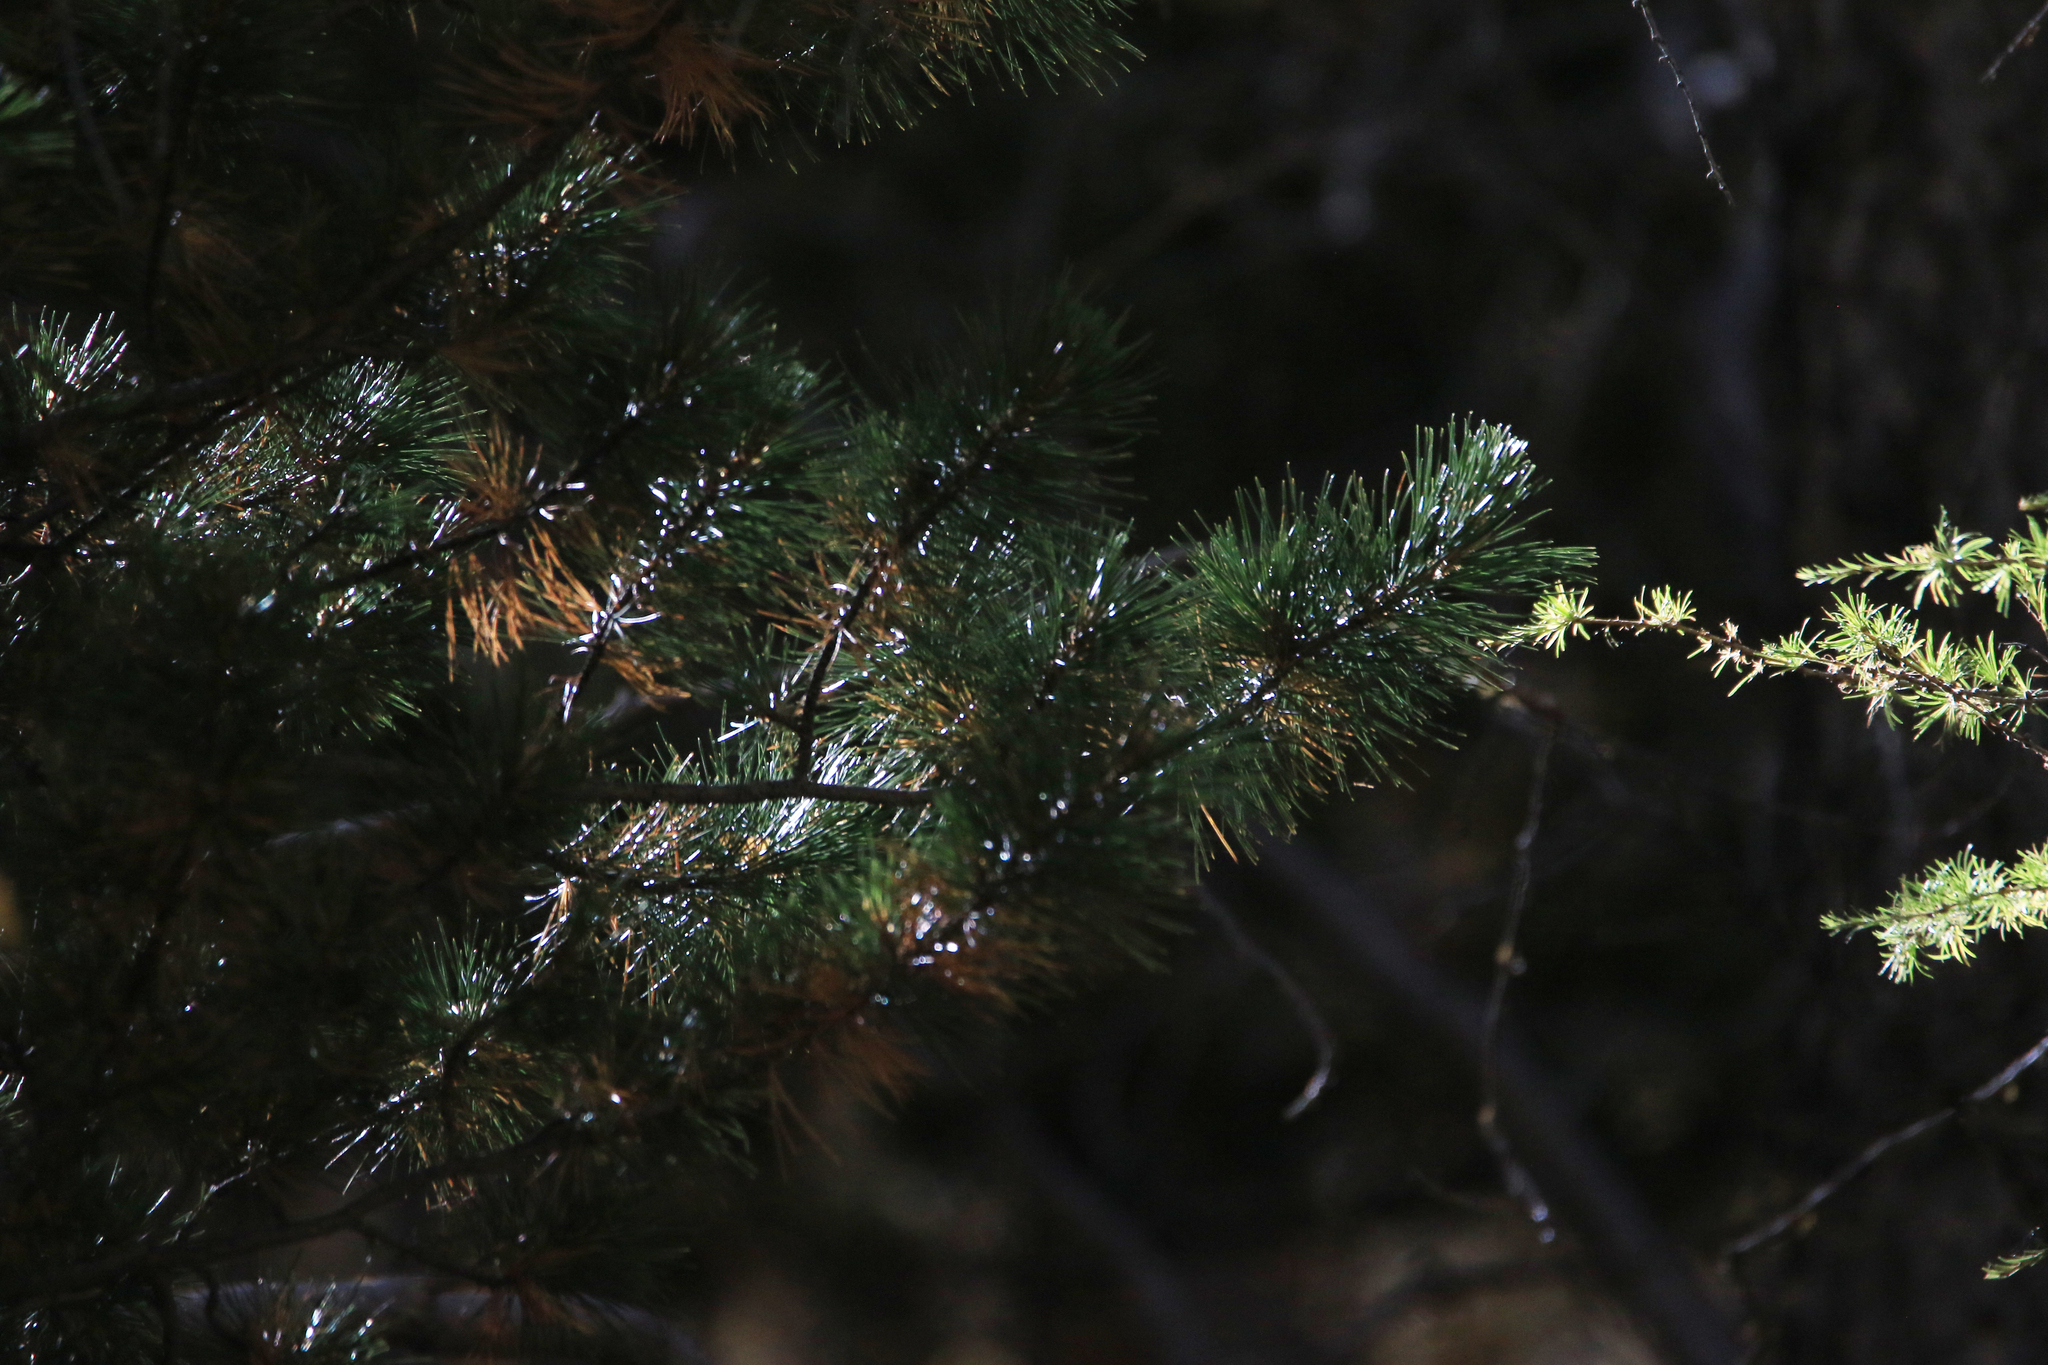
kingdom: Plantae
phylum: Tracheophyta
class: Pinopsida
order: Pinales
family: Pinaceae
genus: Pinus
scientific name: Pinus sibirica
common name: Siberian pine
